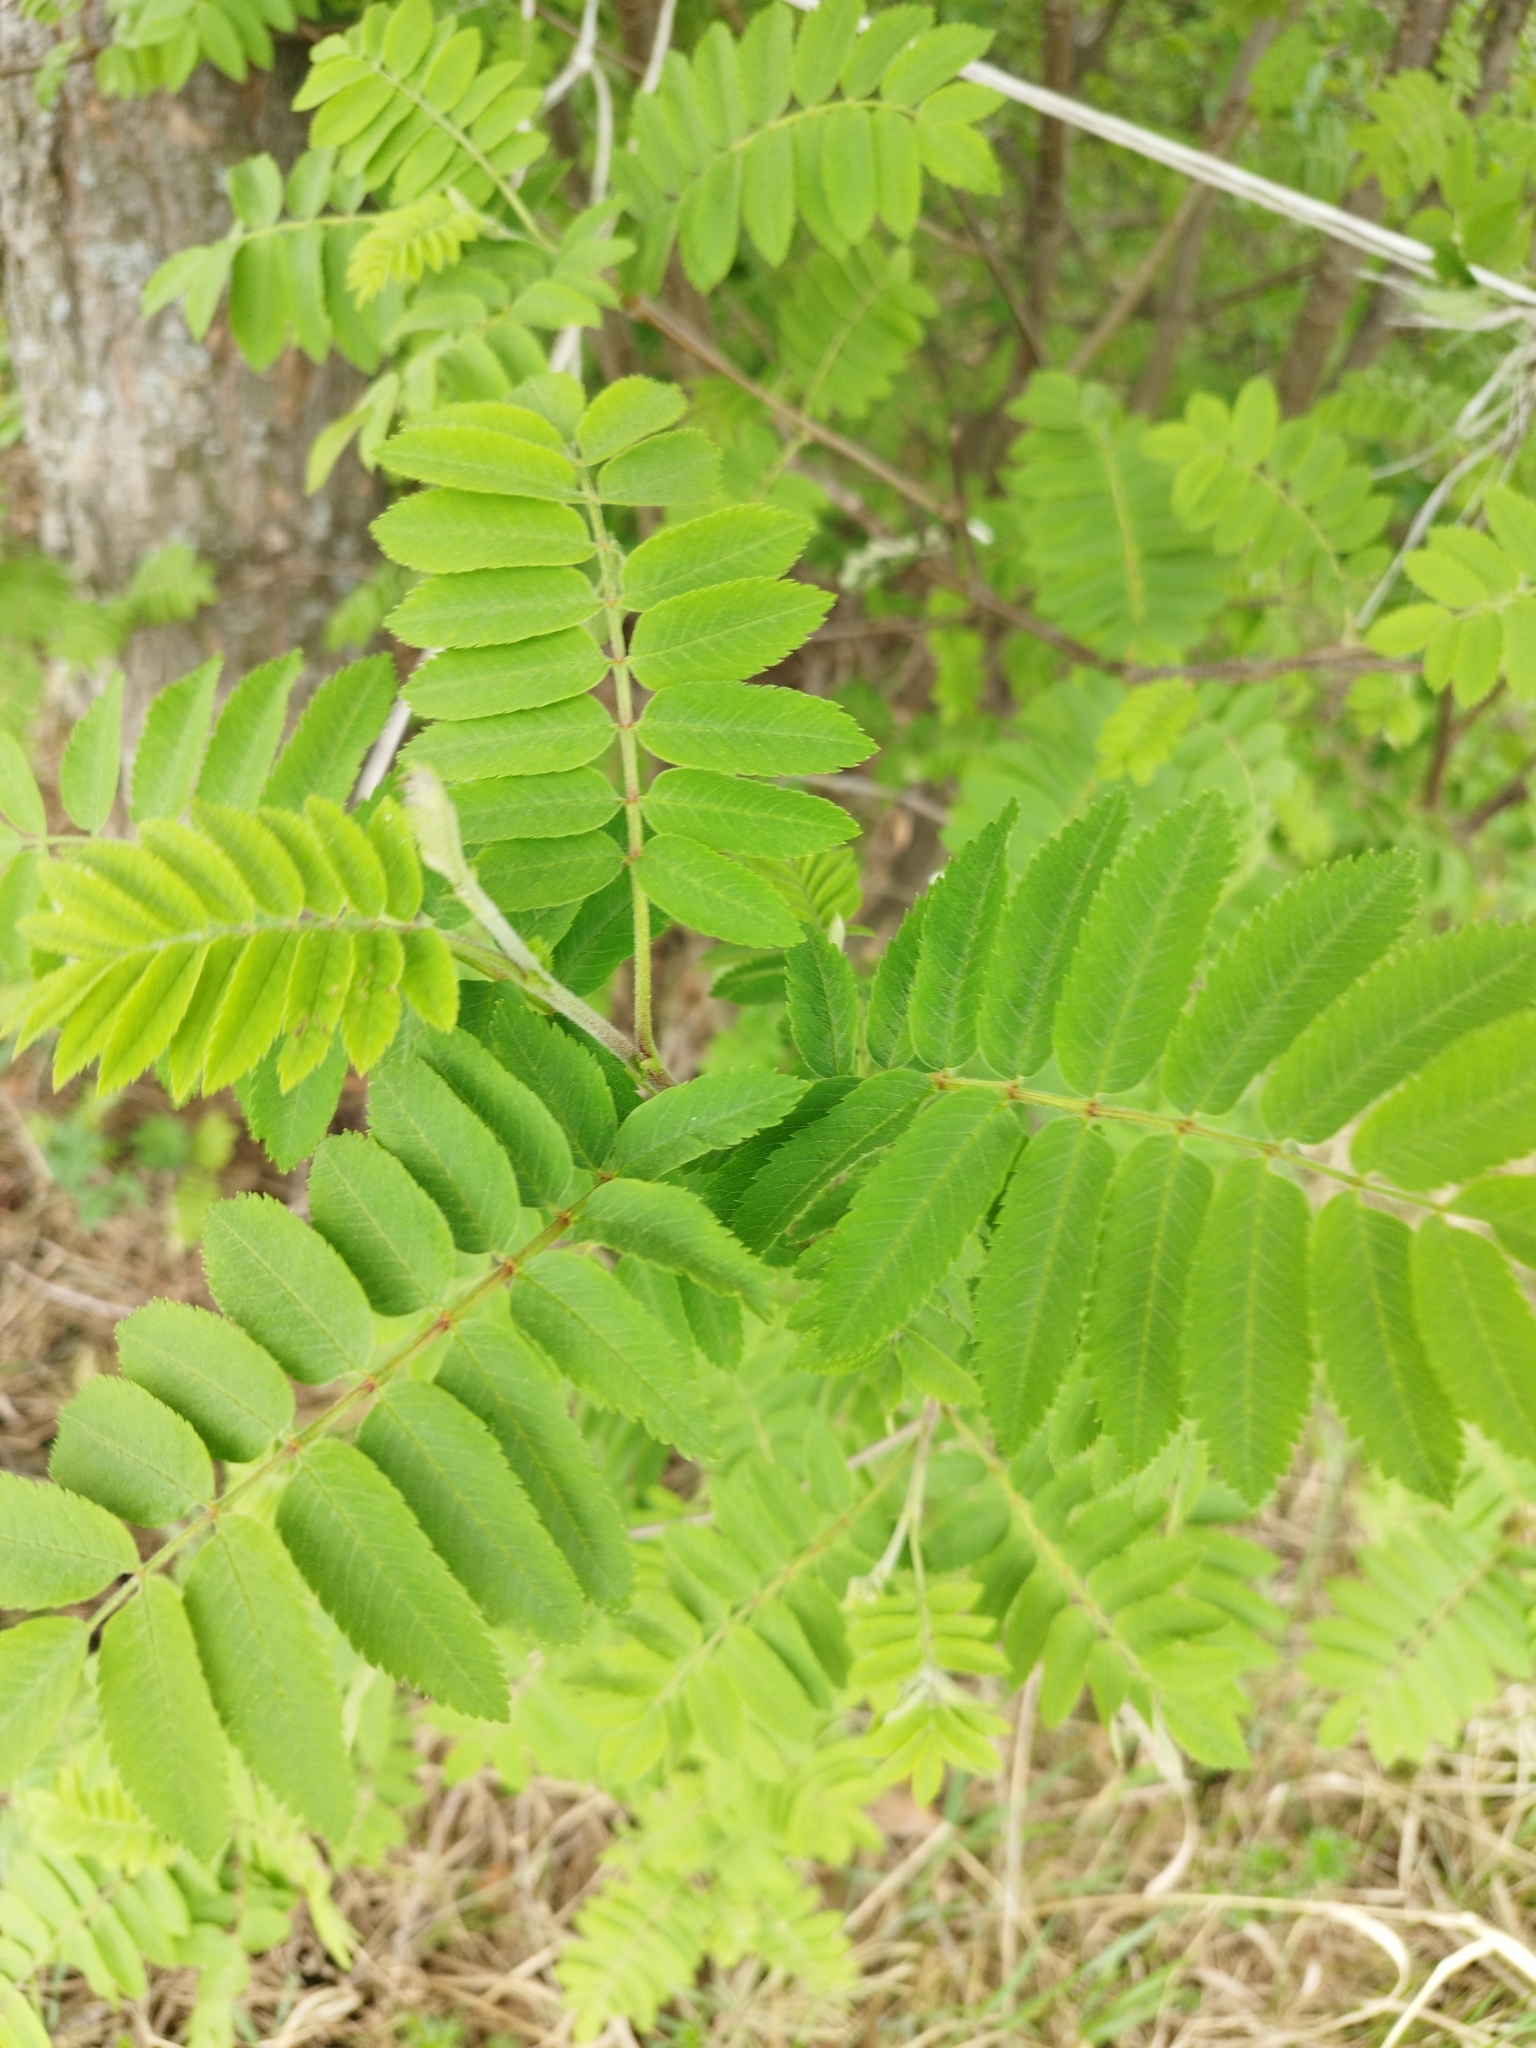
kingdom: Plantae
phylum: Tracheophyta
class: Magnoliopsida
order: Rosales
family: Rosaceae
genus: Sorbus
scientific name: Sorbus aucuparia
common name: Rowan
